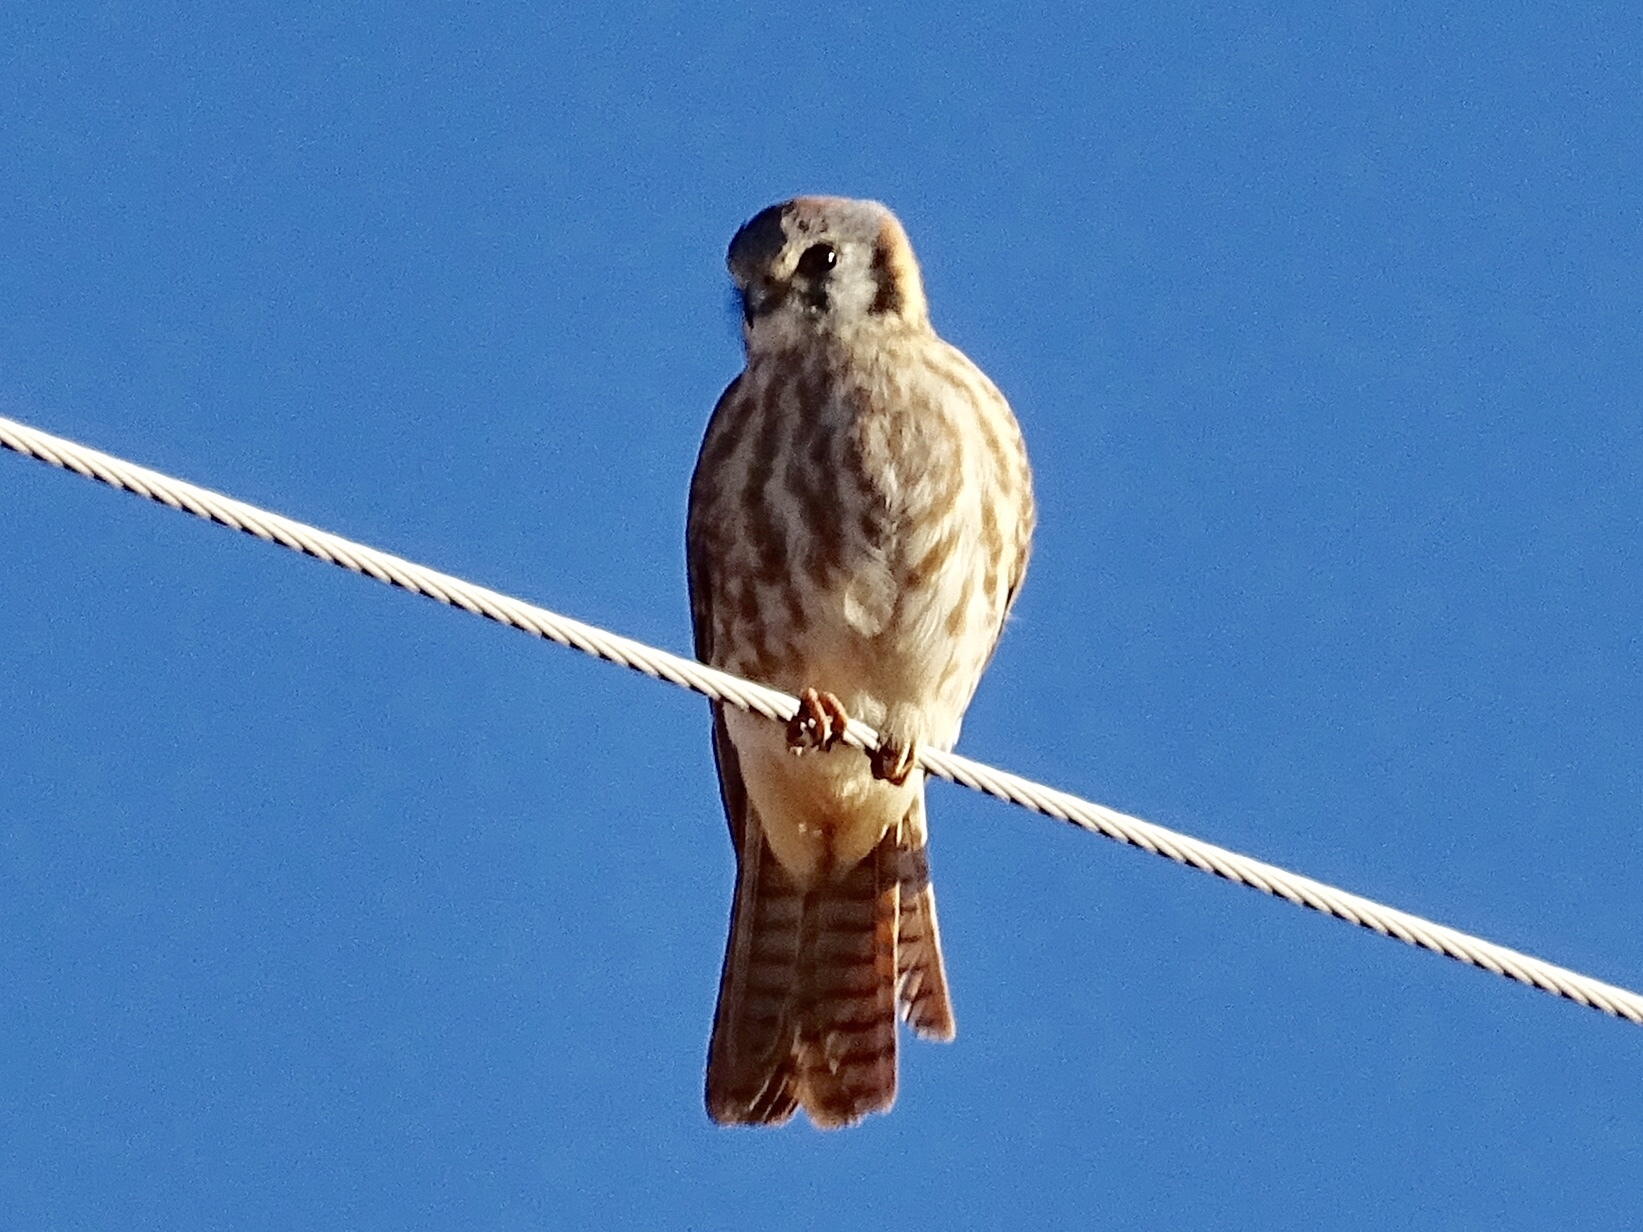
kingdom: Animalia
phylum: Chordata
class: Aves
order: Falconiformes
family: Falconidae
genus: Falco
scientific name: Falco sparverius
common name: American kestrel
